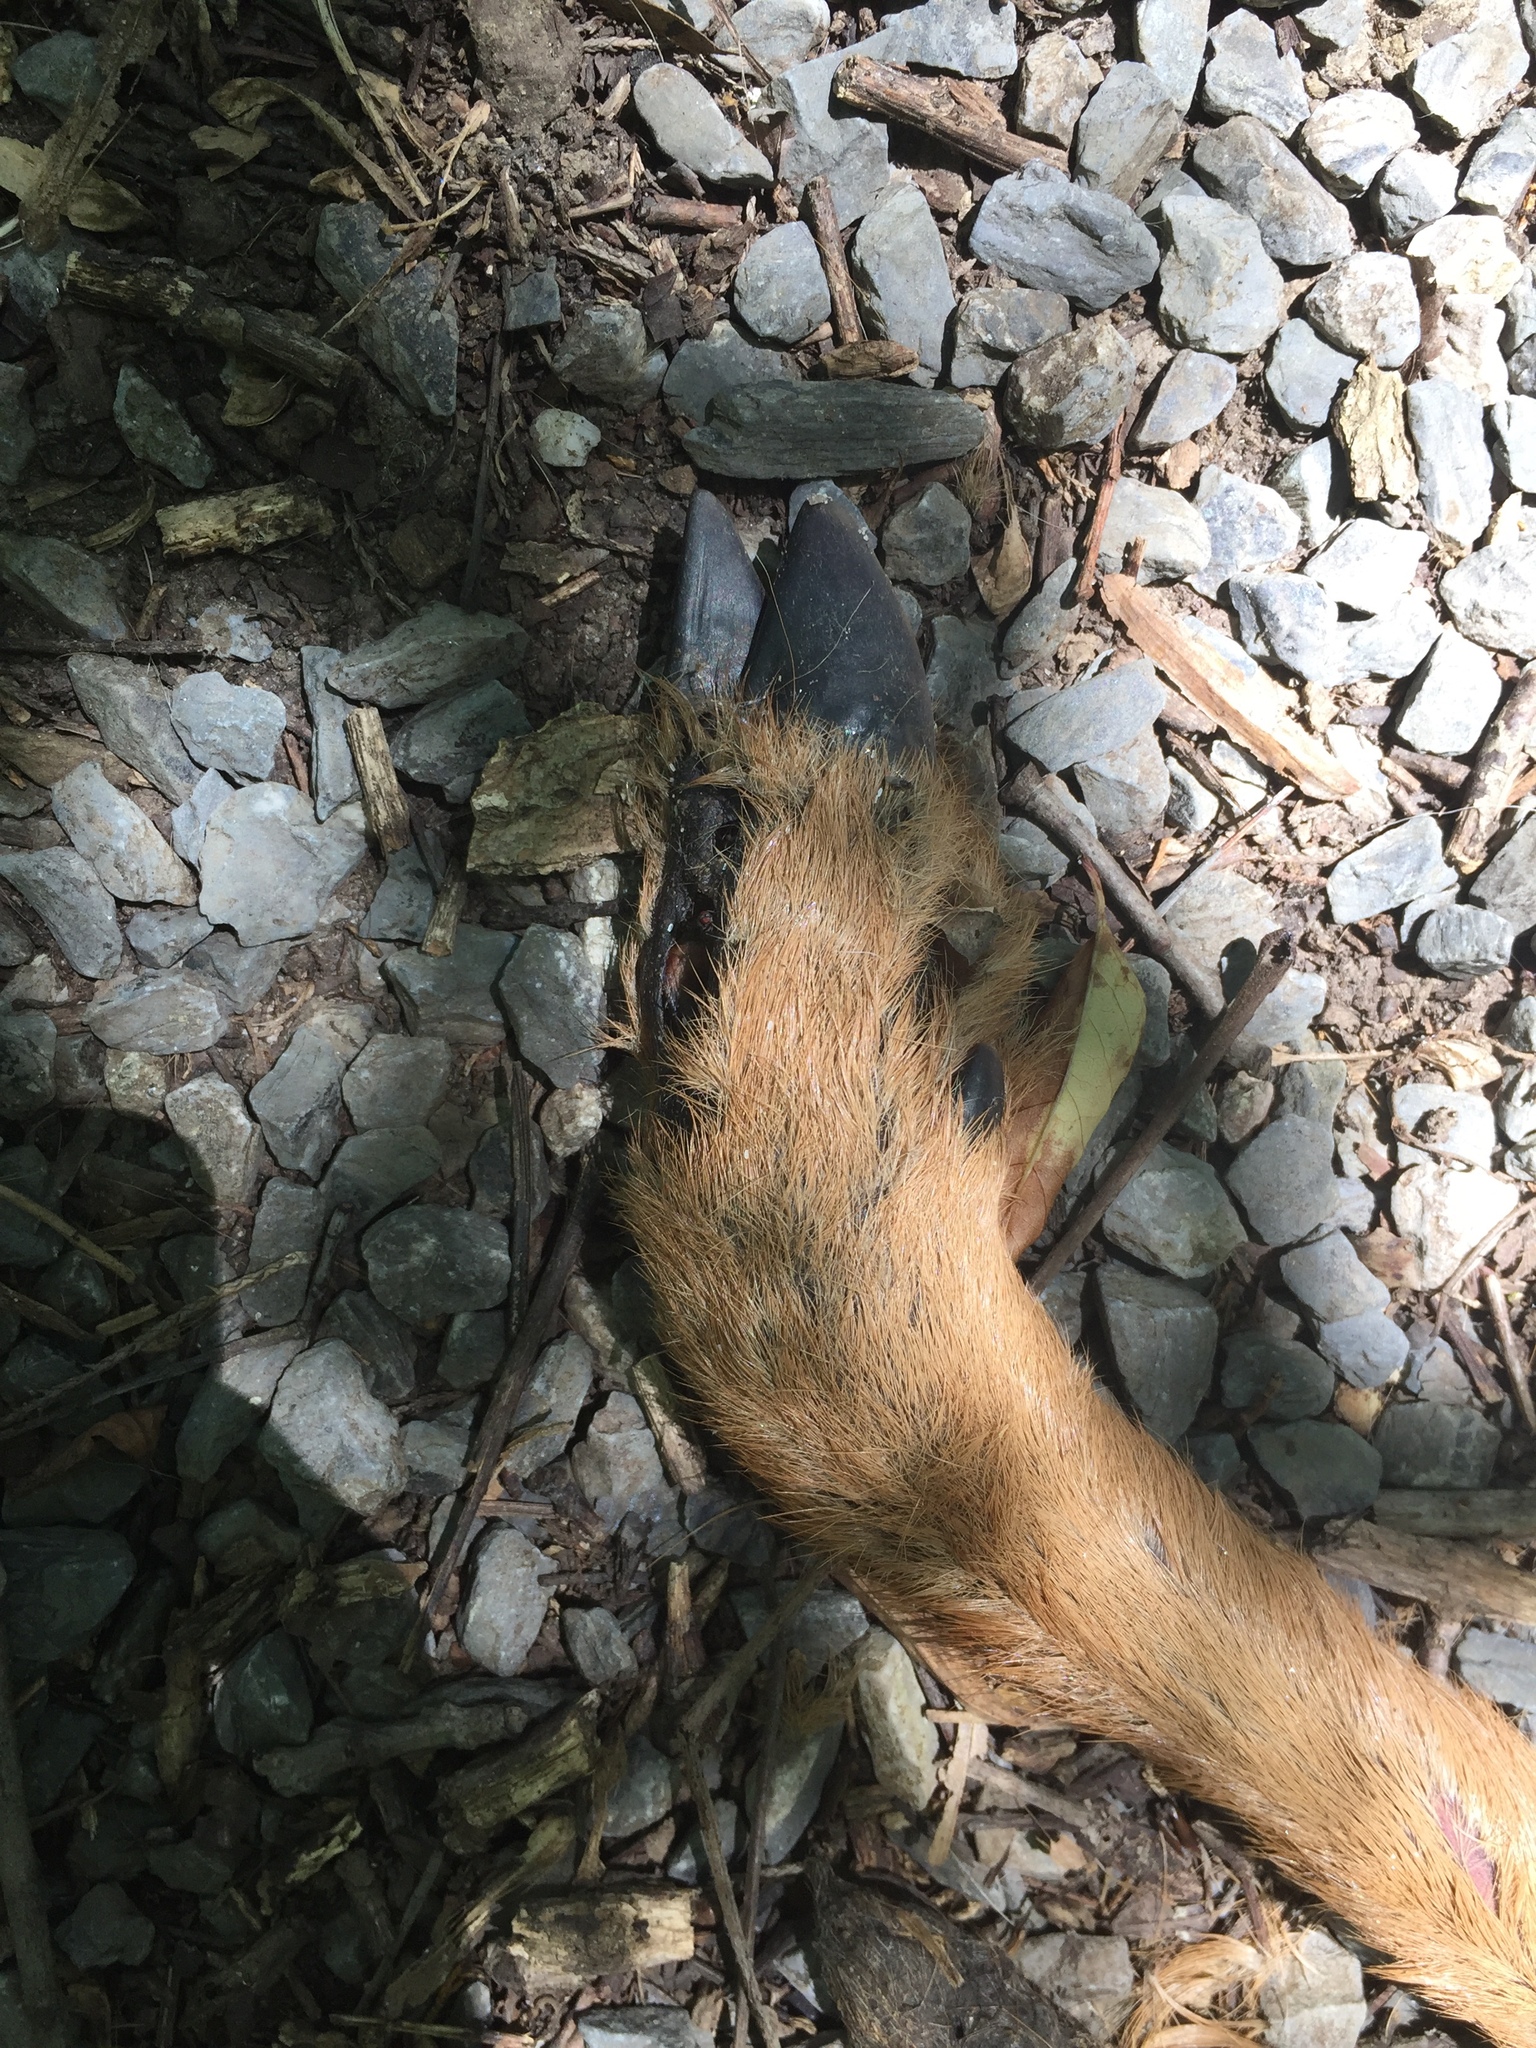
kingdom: Animalia
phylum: Chordata
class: Mammalia
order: Artiodactyla
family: Cervidae
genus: Odocoileus
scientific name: Odocoileus virginianus
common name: White-tailed deer
